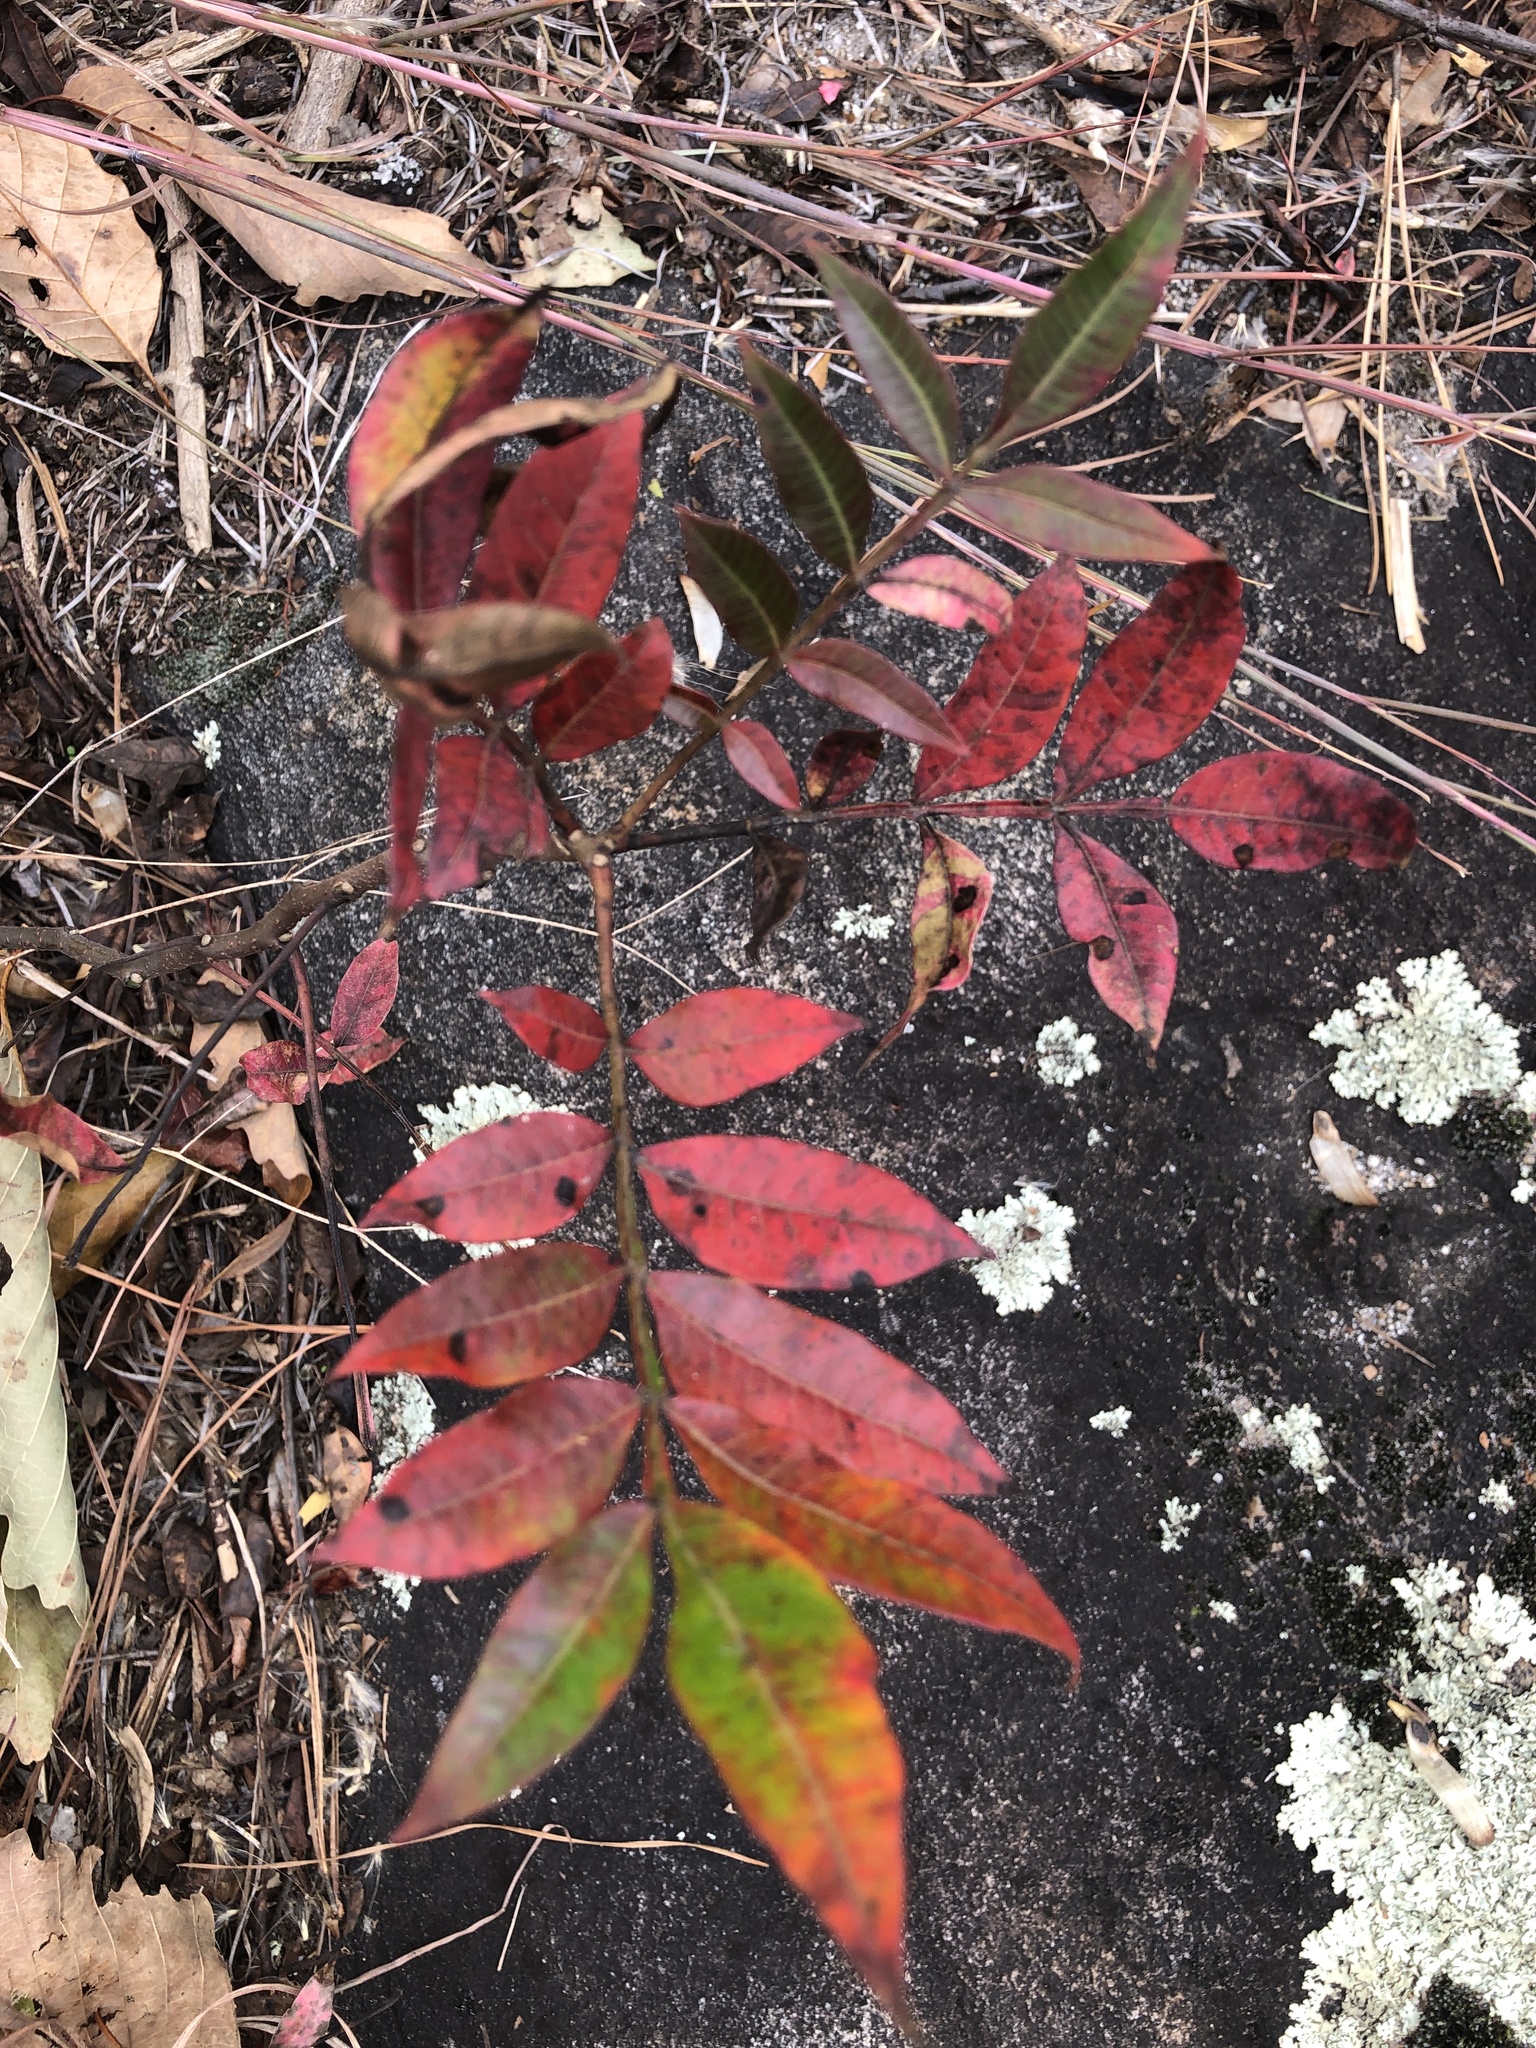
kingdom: Plantae
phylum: Tracheophyta
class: Magnoliopsida
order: Sapindales
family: Anacardiaceae
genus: Rhus
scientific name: Rhus copallina
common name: Shining sumac
